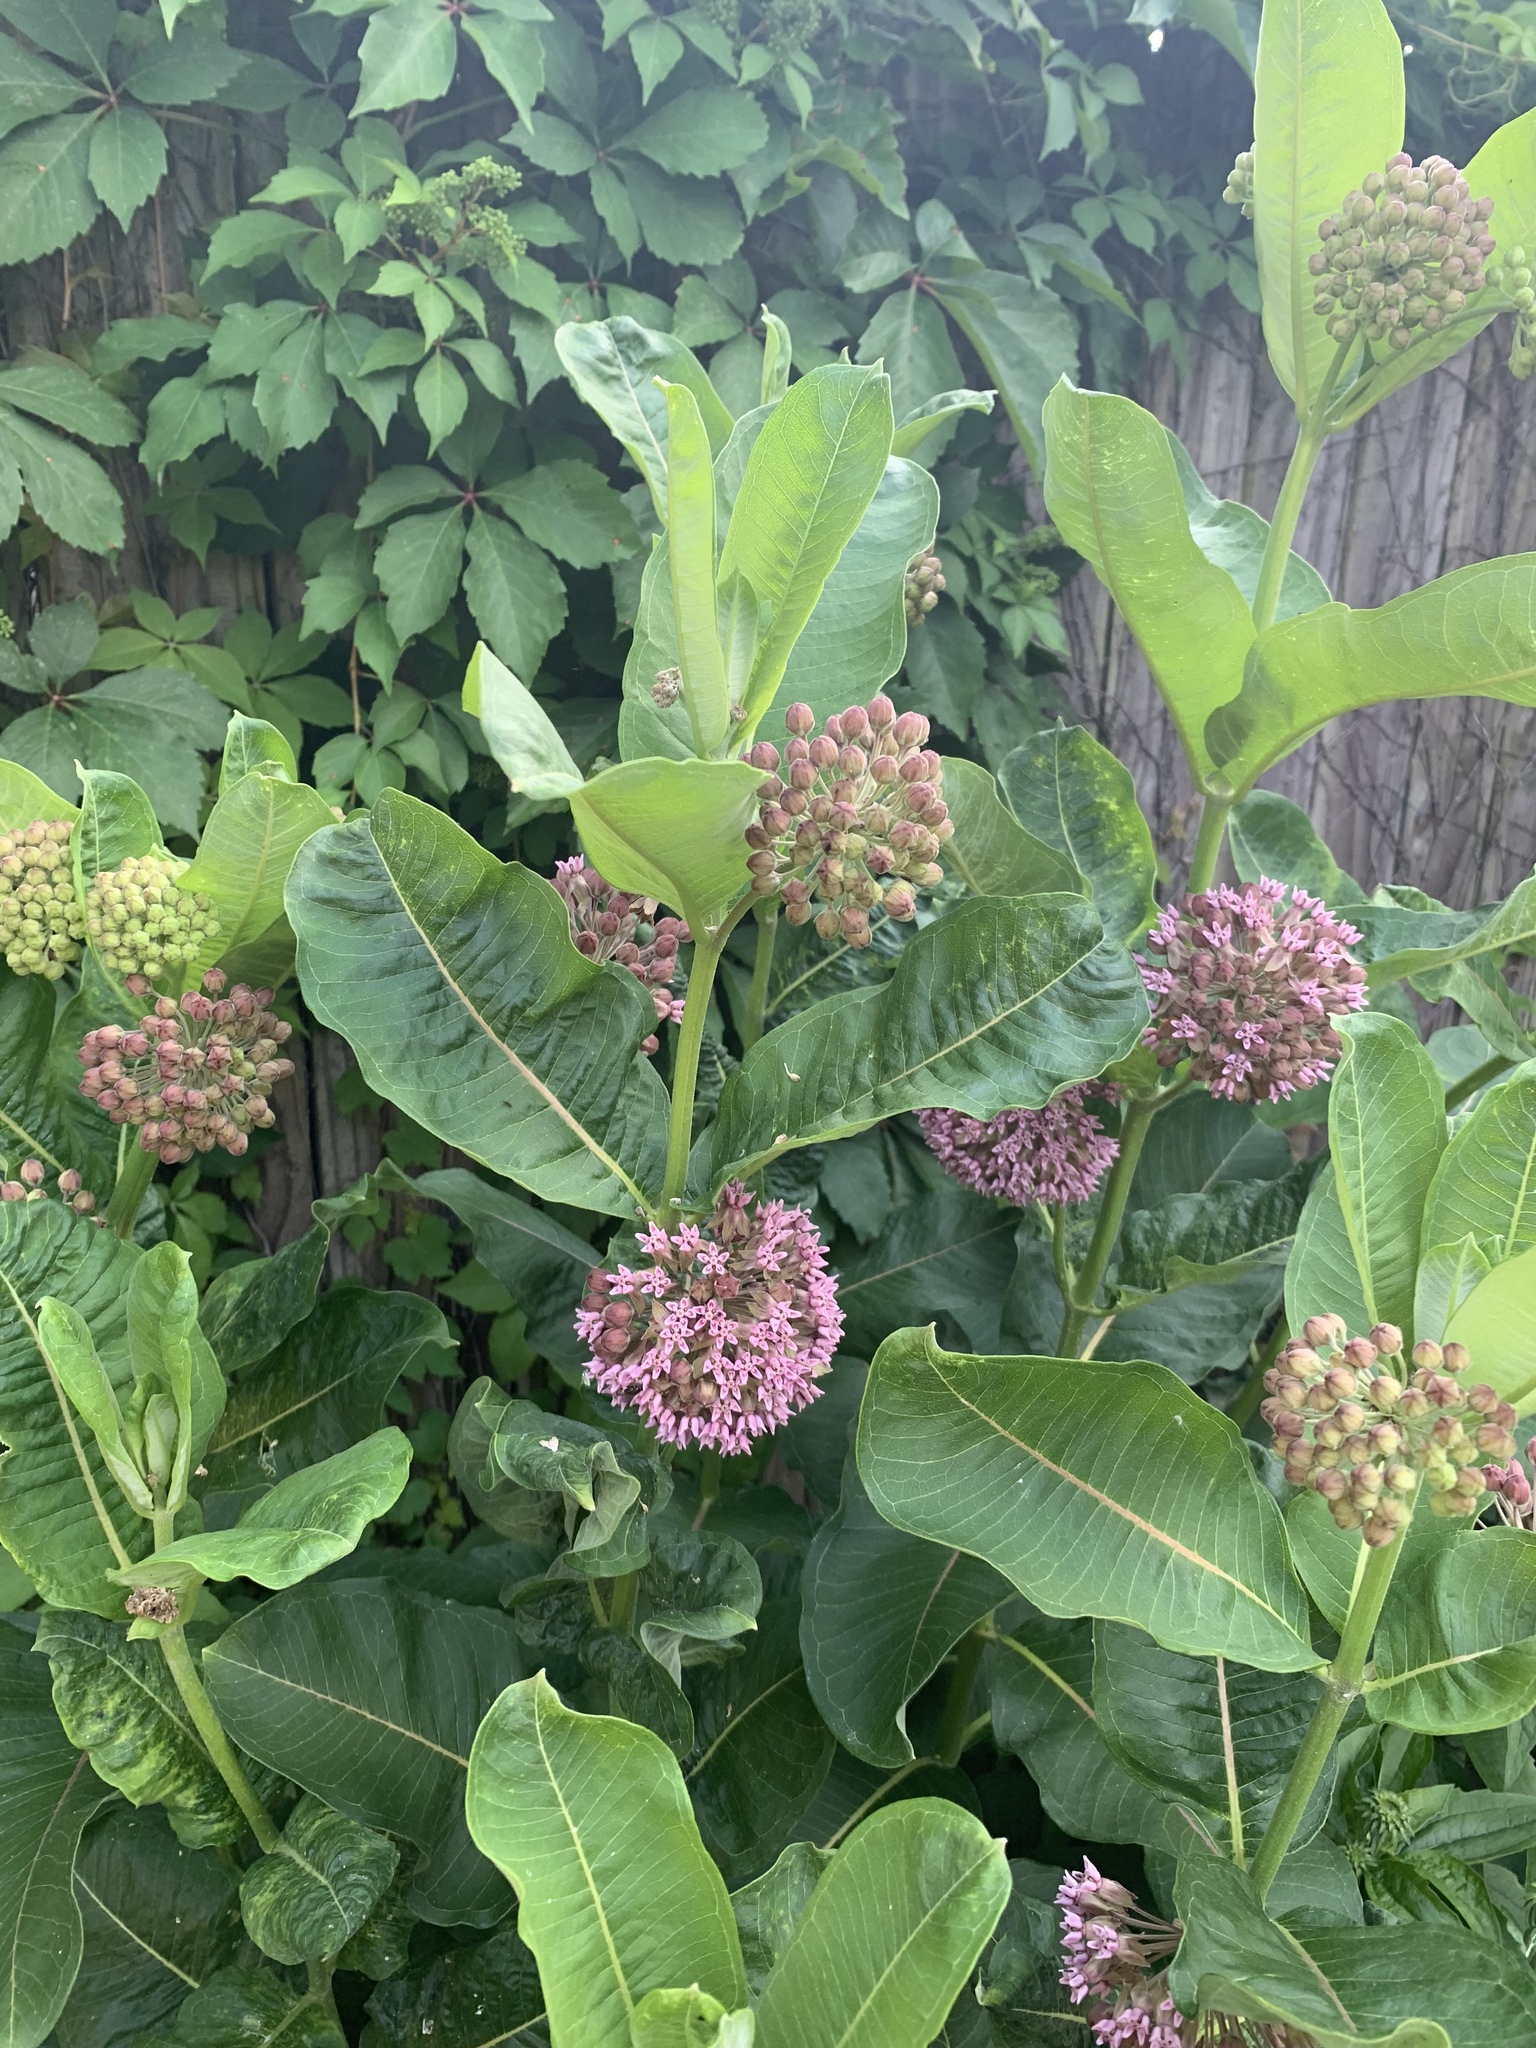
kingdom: Plantae
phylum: Tracheophyta
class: Magnoliopsida
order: Gentianales
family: Apocynaceae
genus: Asclepias
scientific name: Asclepias syriaca
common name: Common milkweed
